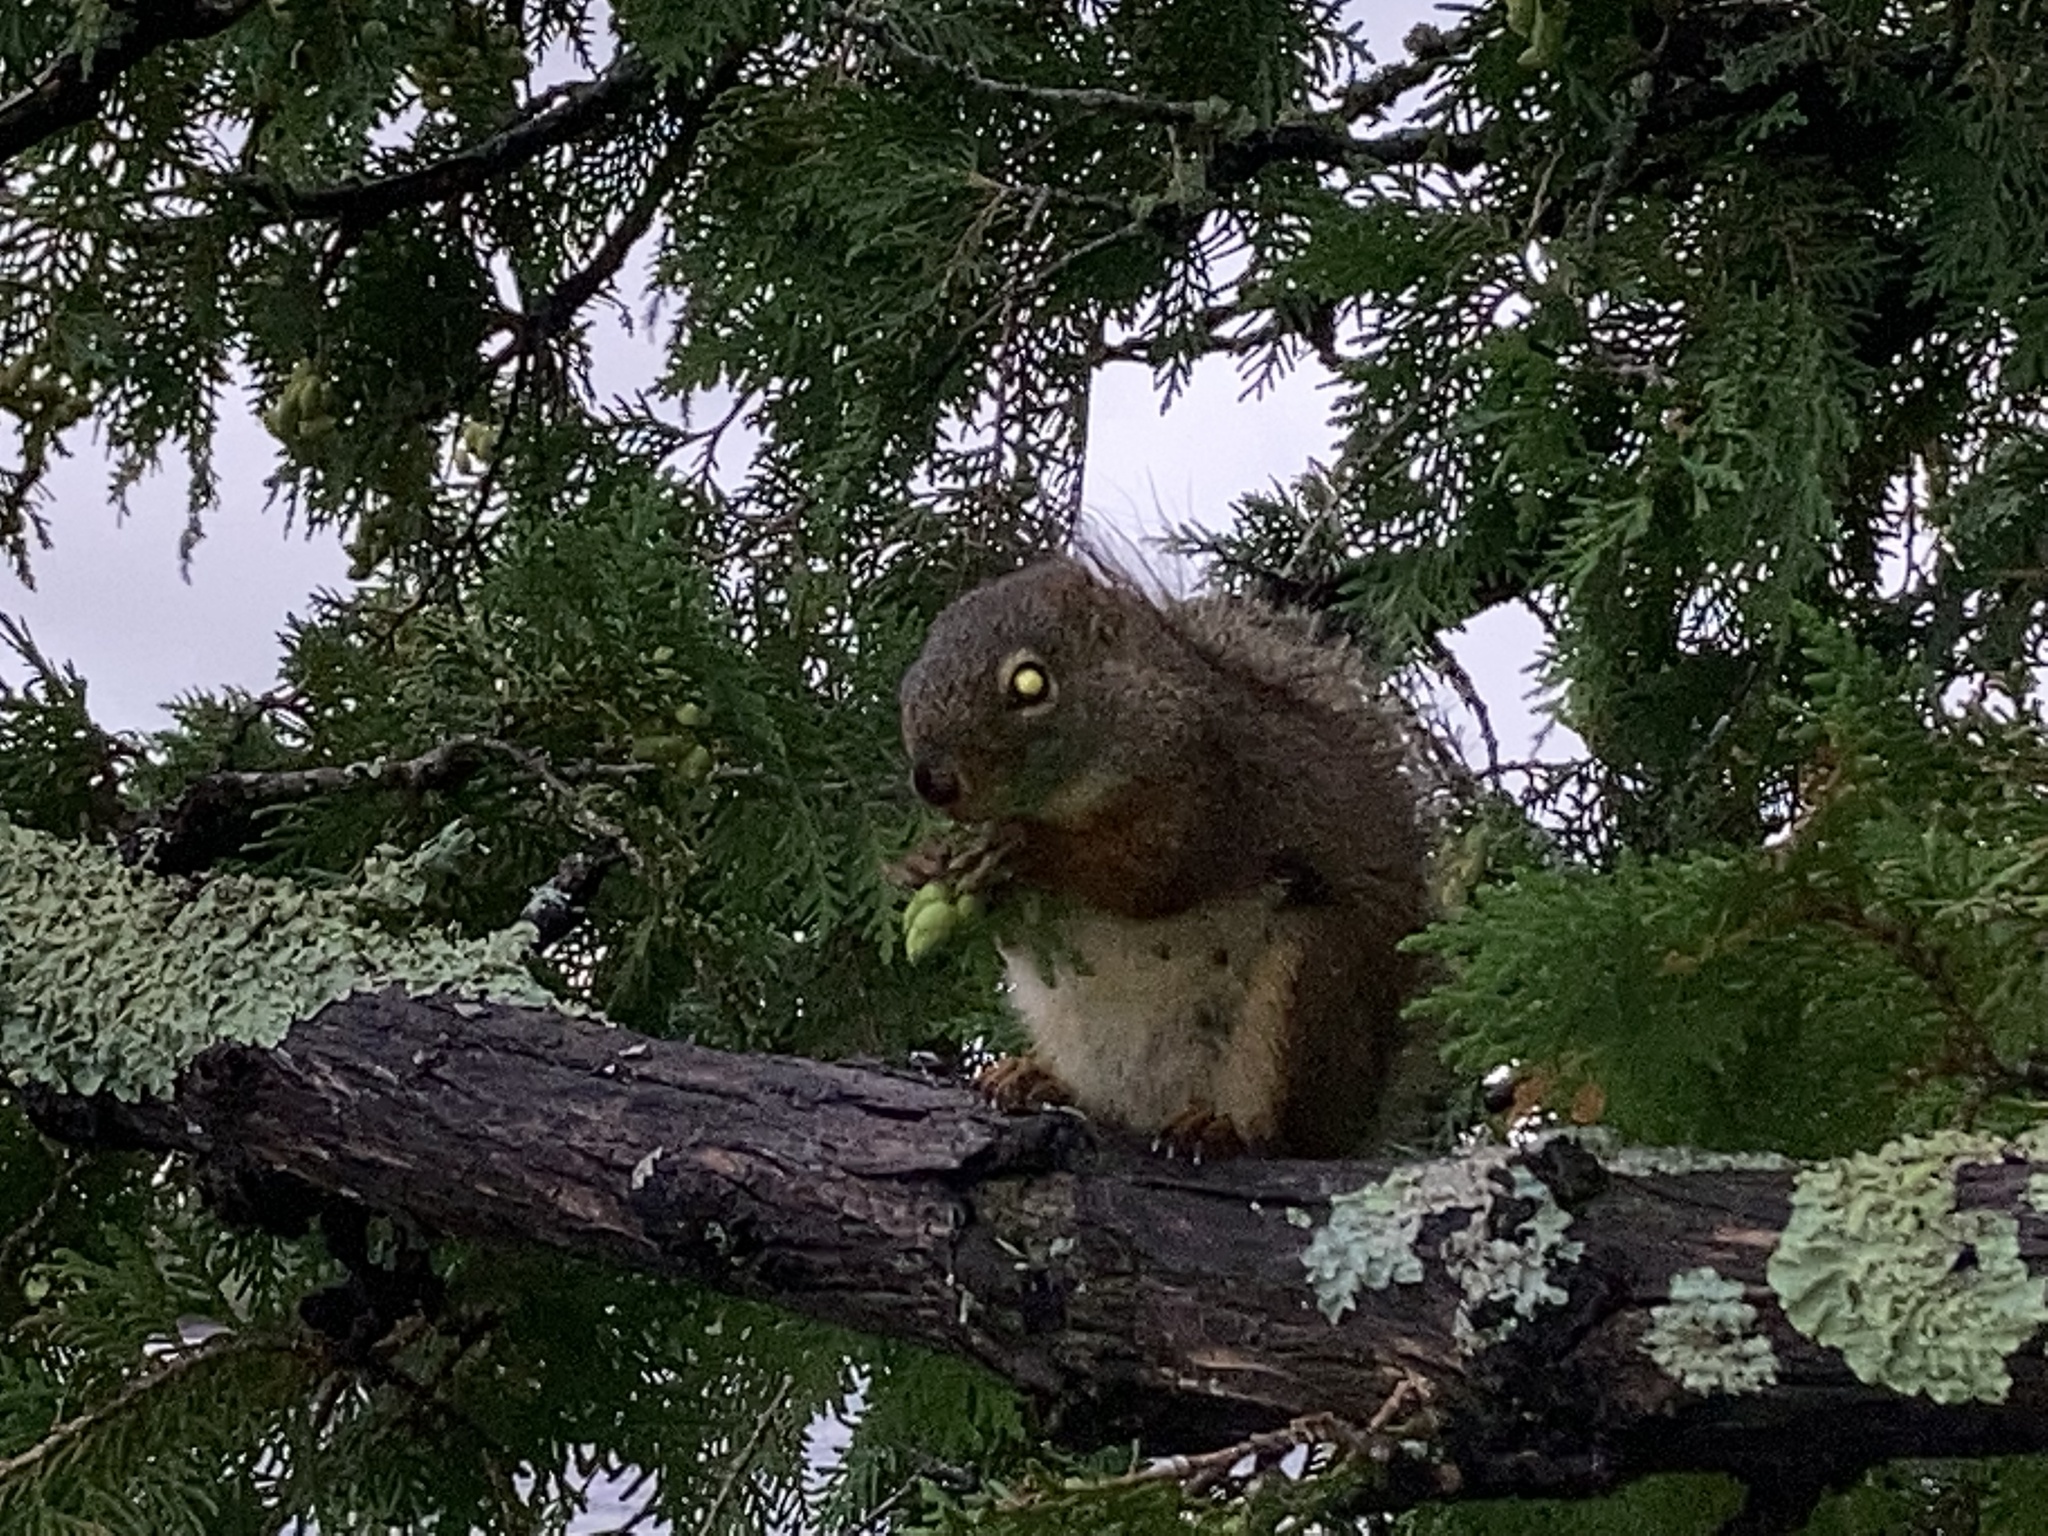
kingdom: Animalia
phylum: Chordata
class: Mammalia
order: Rodentia
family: Sciuridae
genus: Tamiasciurus
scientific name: Tamiasciurus hudsonicus
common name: Red squirrel
